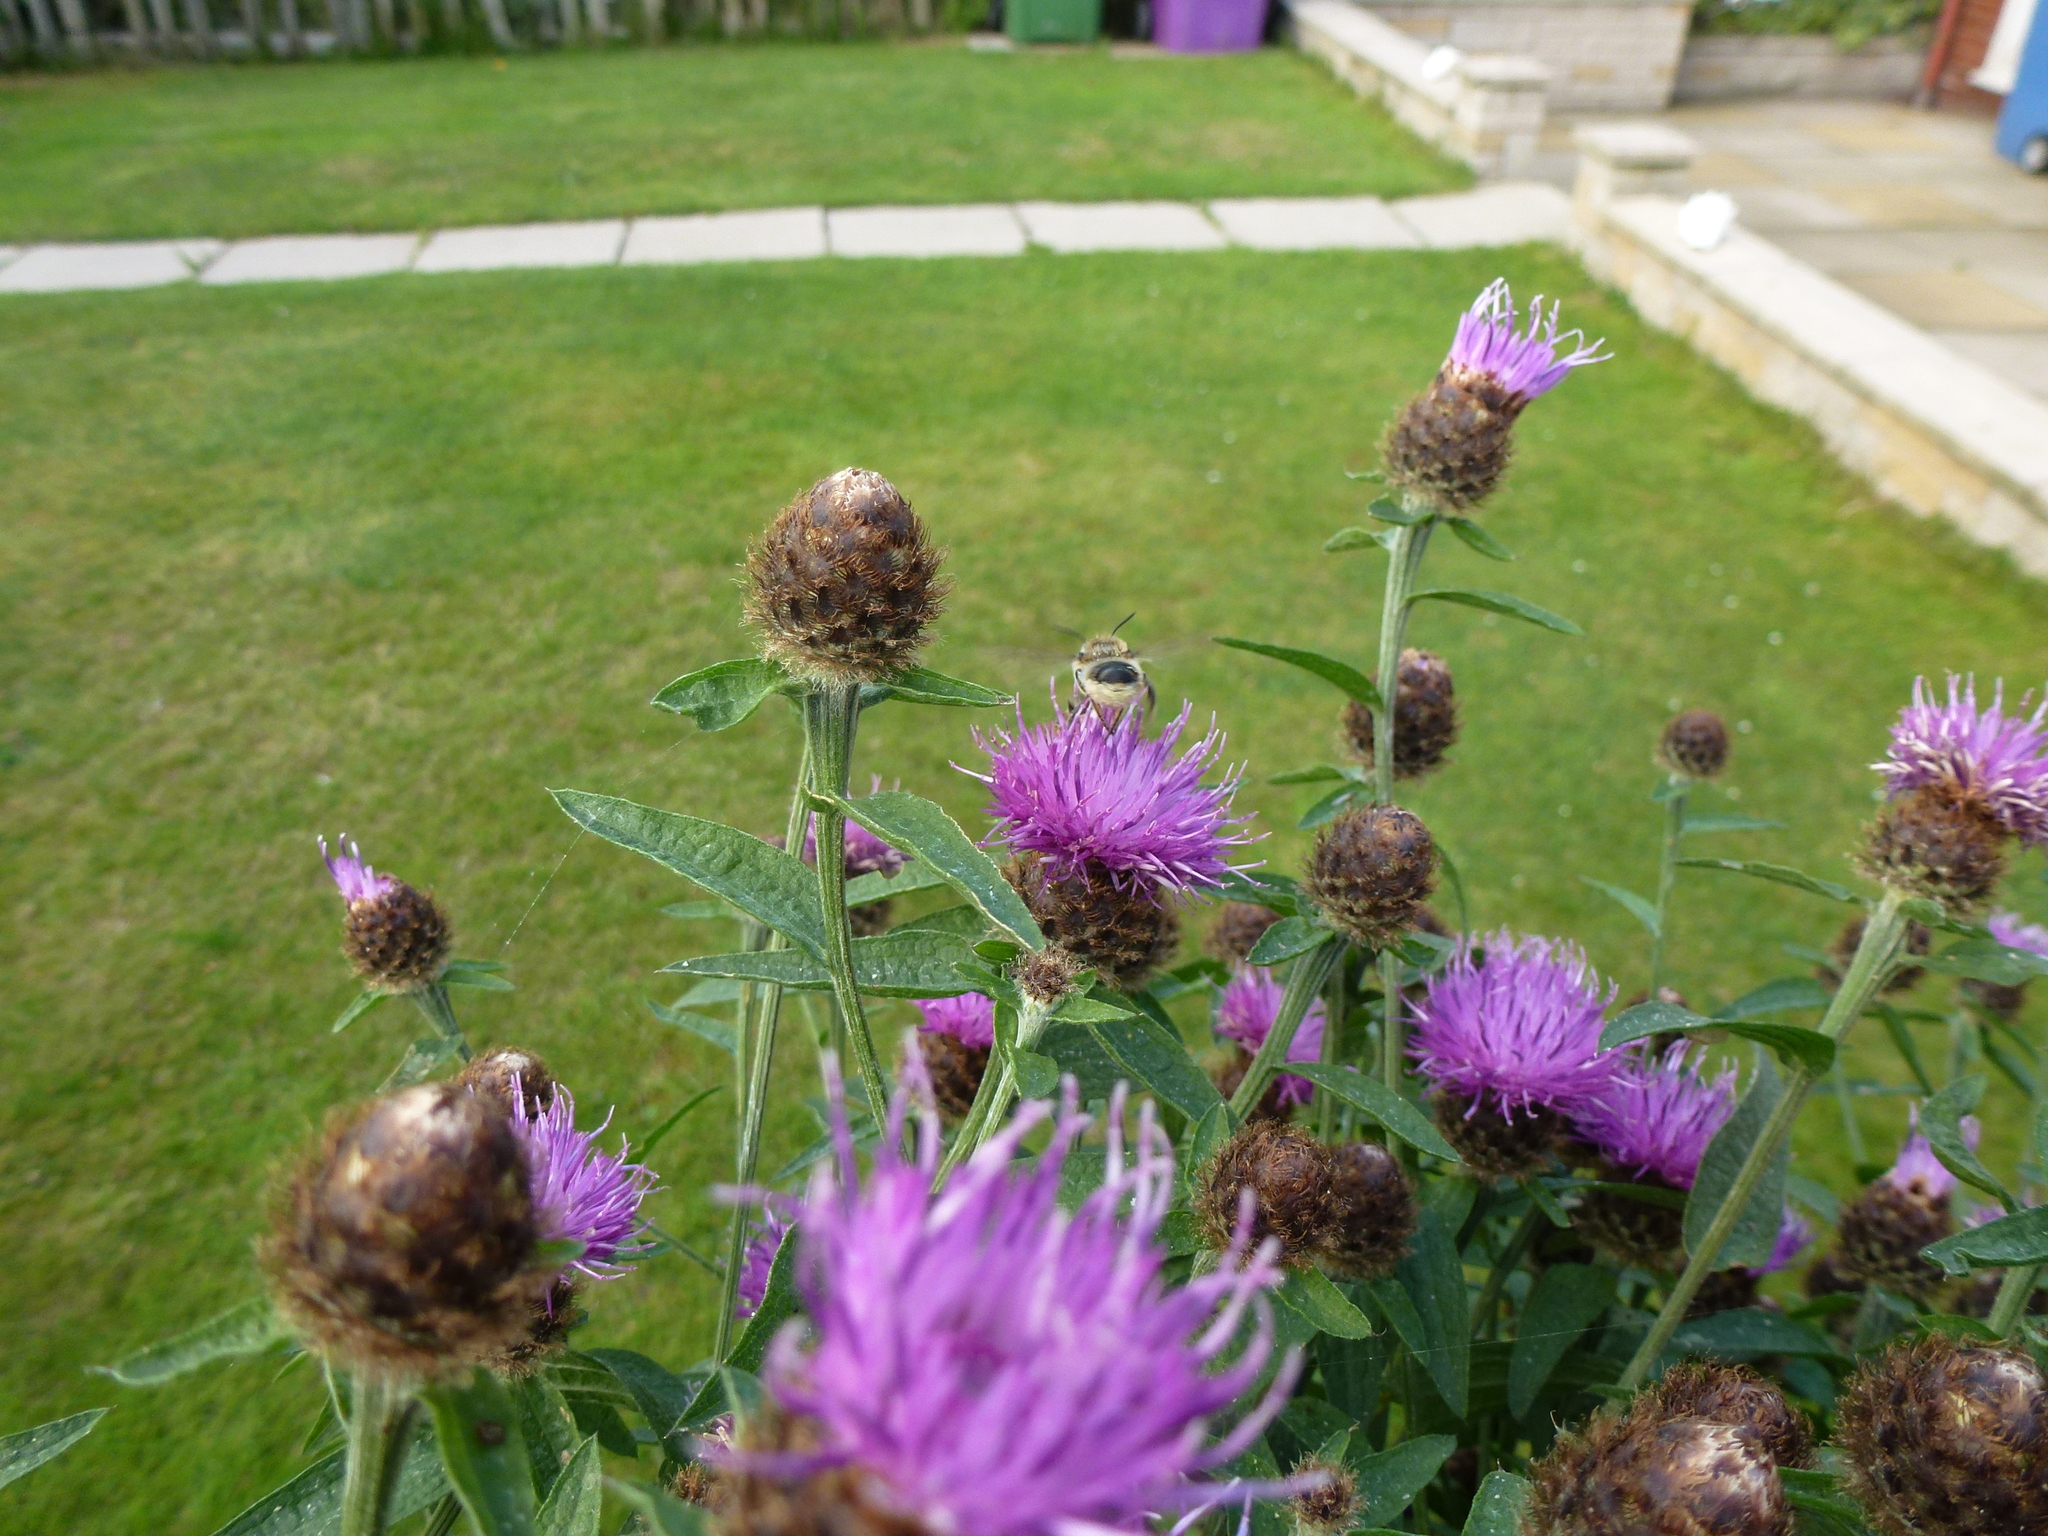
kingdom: Plantae
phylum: Tracheophyta
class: Magnoliopsida
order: Asterales
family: Asteraceae
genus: Centaurea
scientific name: Centaurea nigra
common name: Lesser knapweed
